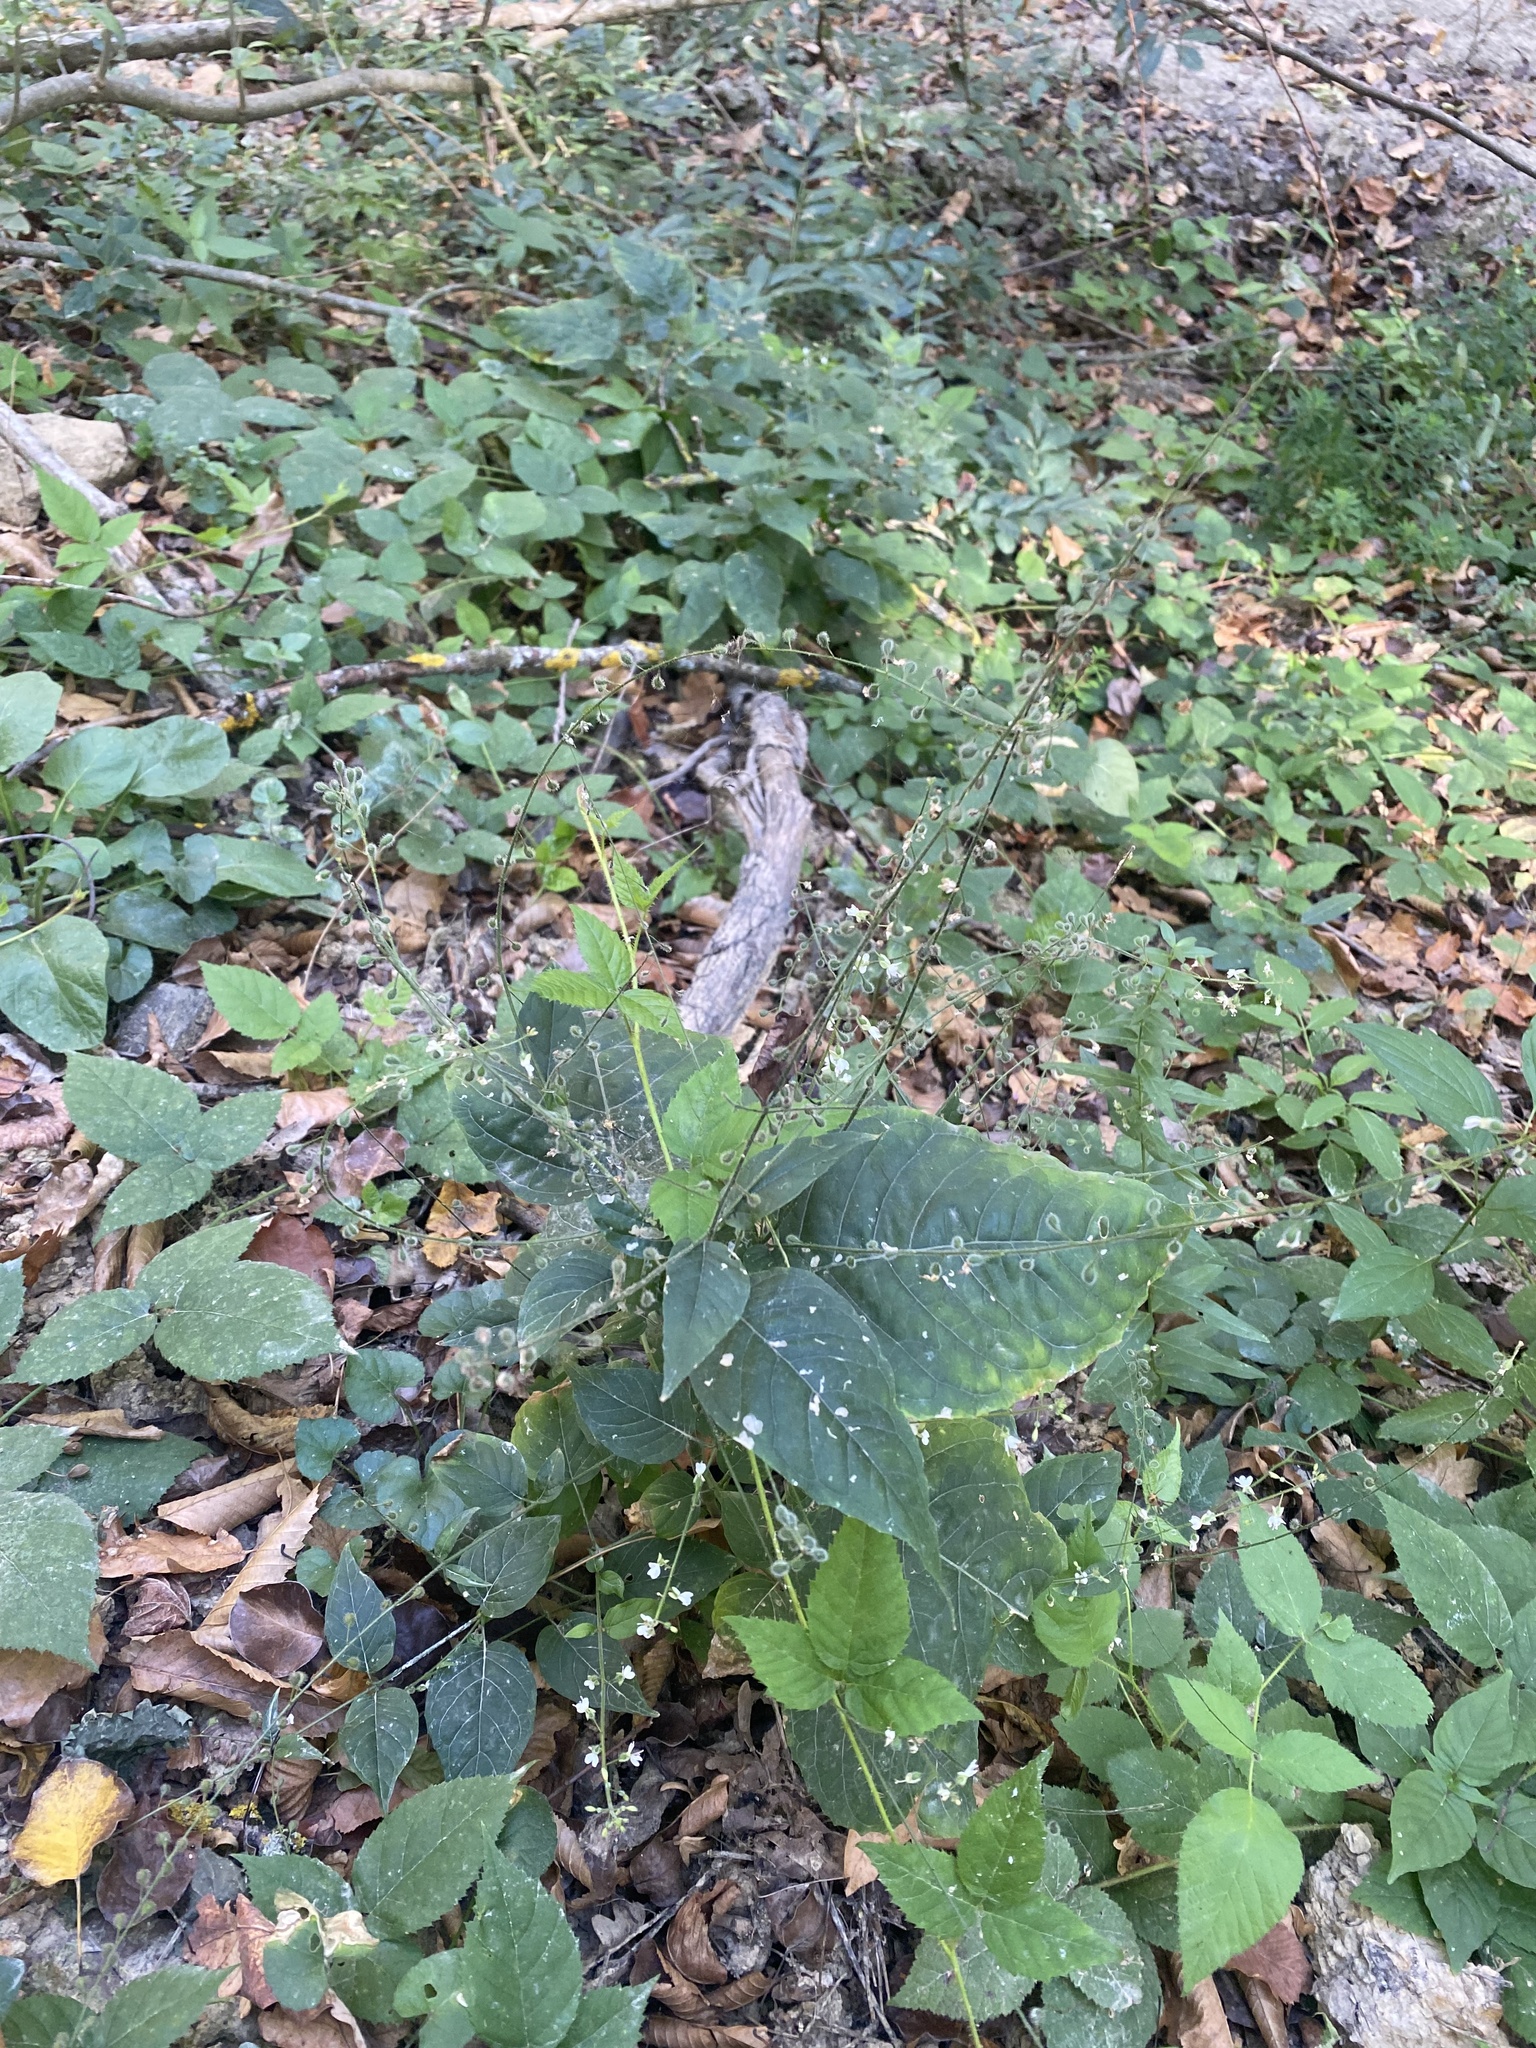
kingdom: Plantae
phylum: Tracheophyta
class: Magnoliopsida
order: Myrtales
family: Onagraceae
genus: Circaea
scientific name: Circaea lutetiana
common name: Enchanter's-nightshade
